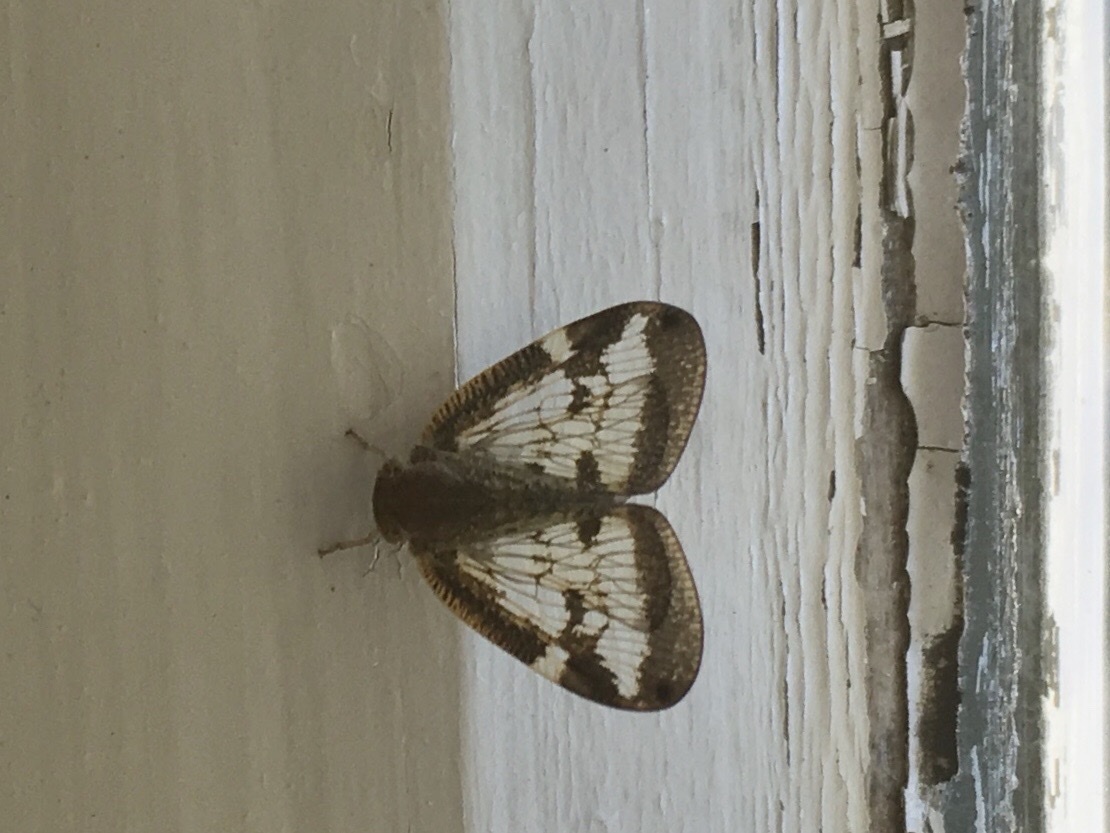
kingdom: Animalia
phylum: Arthropoda
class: Insecta
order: Hemiptera
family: Ricaniidae
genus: Scolypopa
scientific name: Scolypopa australis
